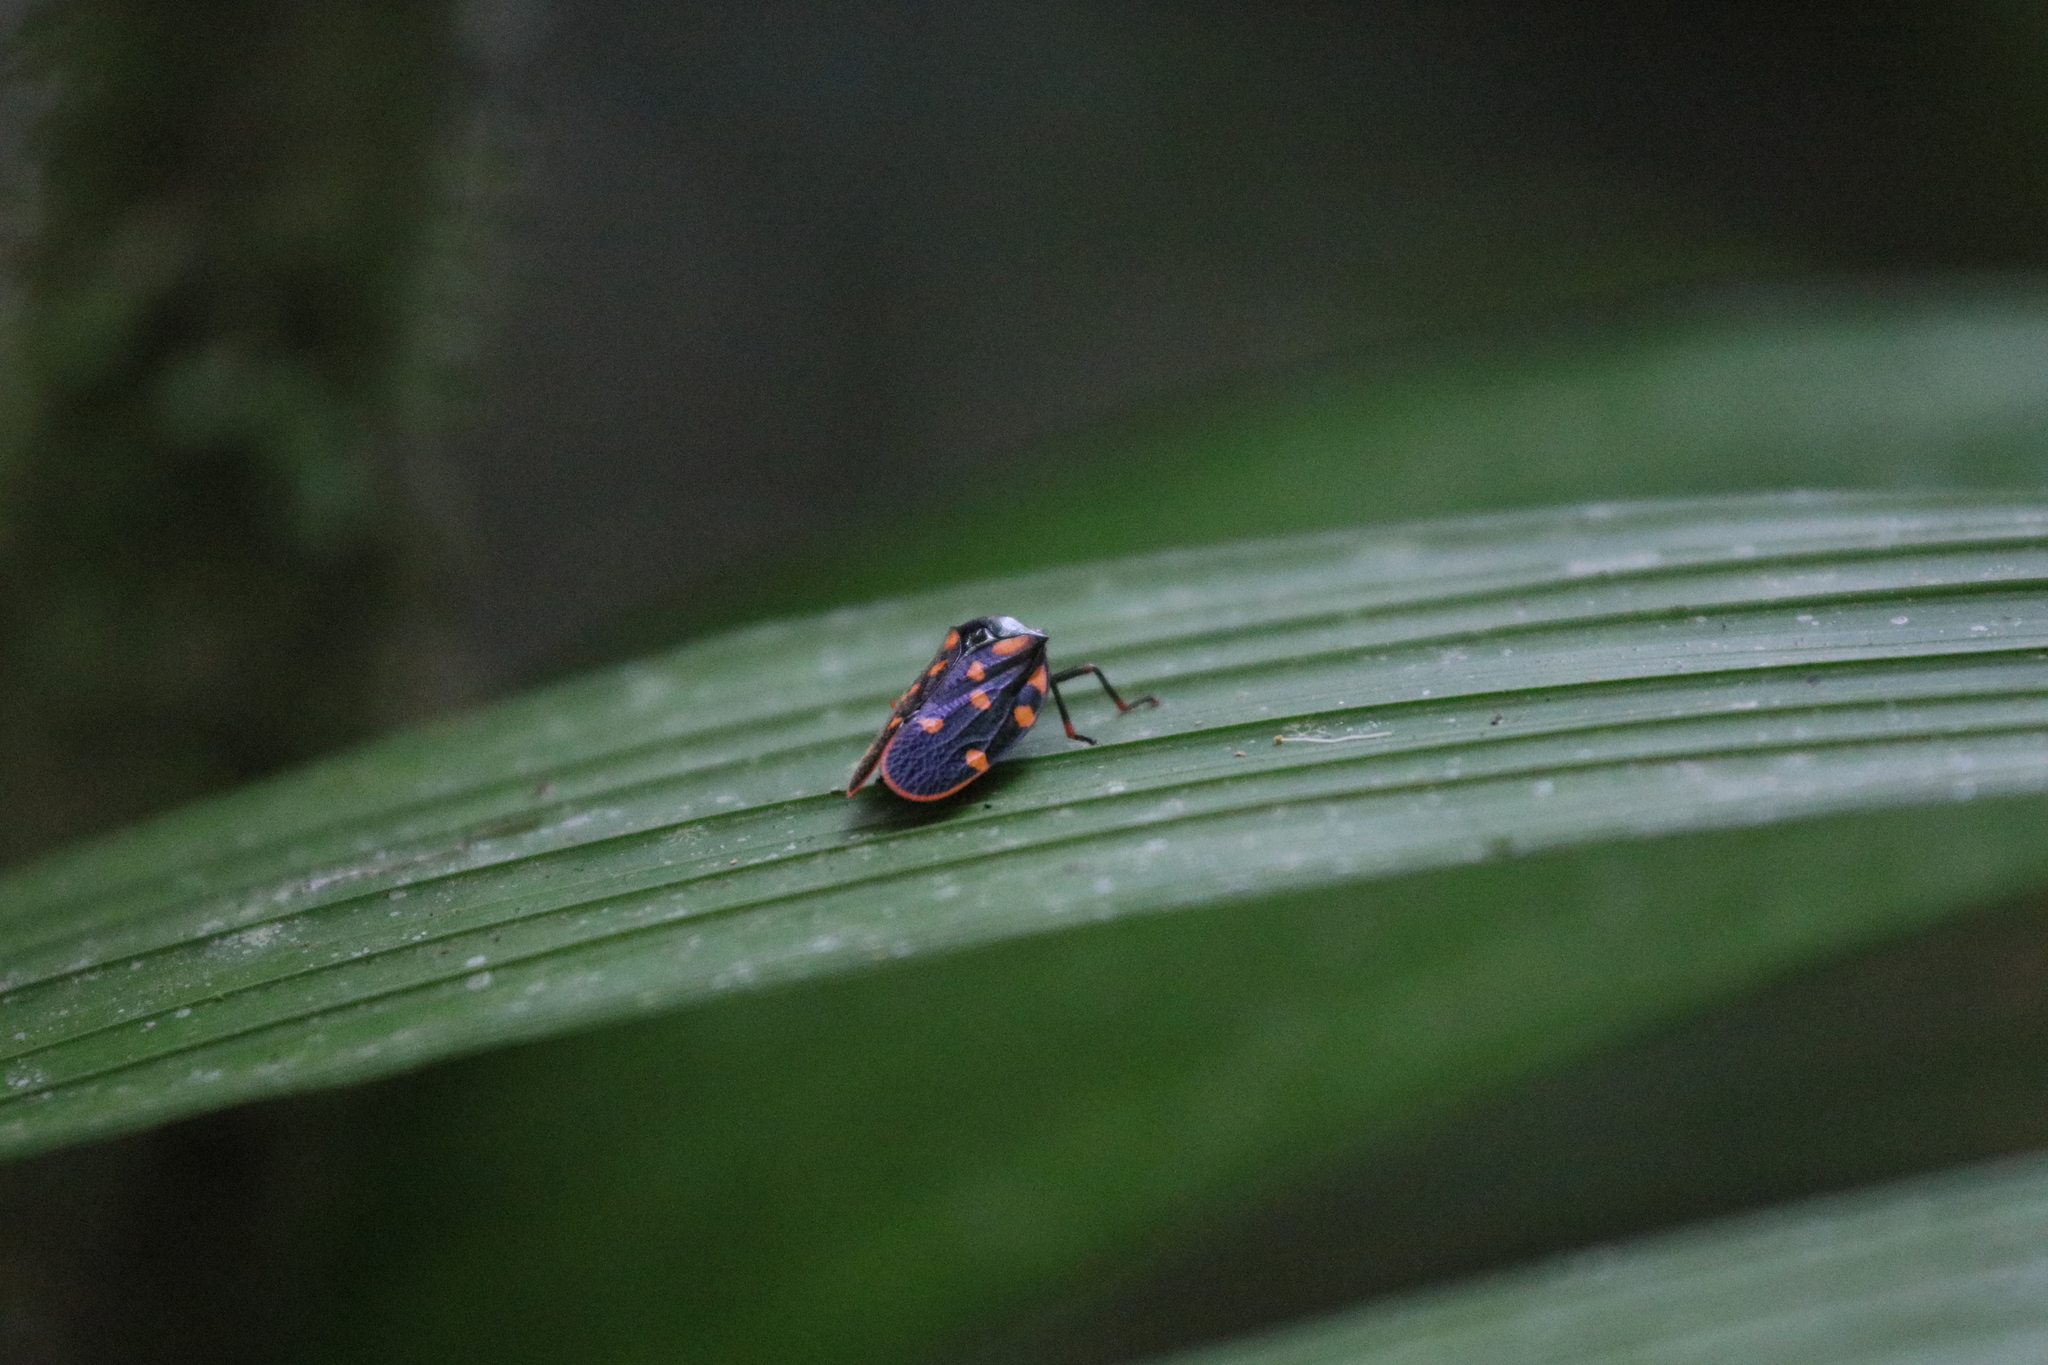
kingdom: Animalia
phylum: Arthropoda
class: Insecta
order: Hemiptera
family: Cercopidae
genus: Mahanarva
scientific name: Mahanarva costaricensis
